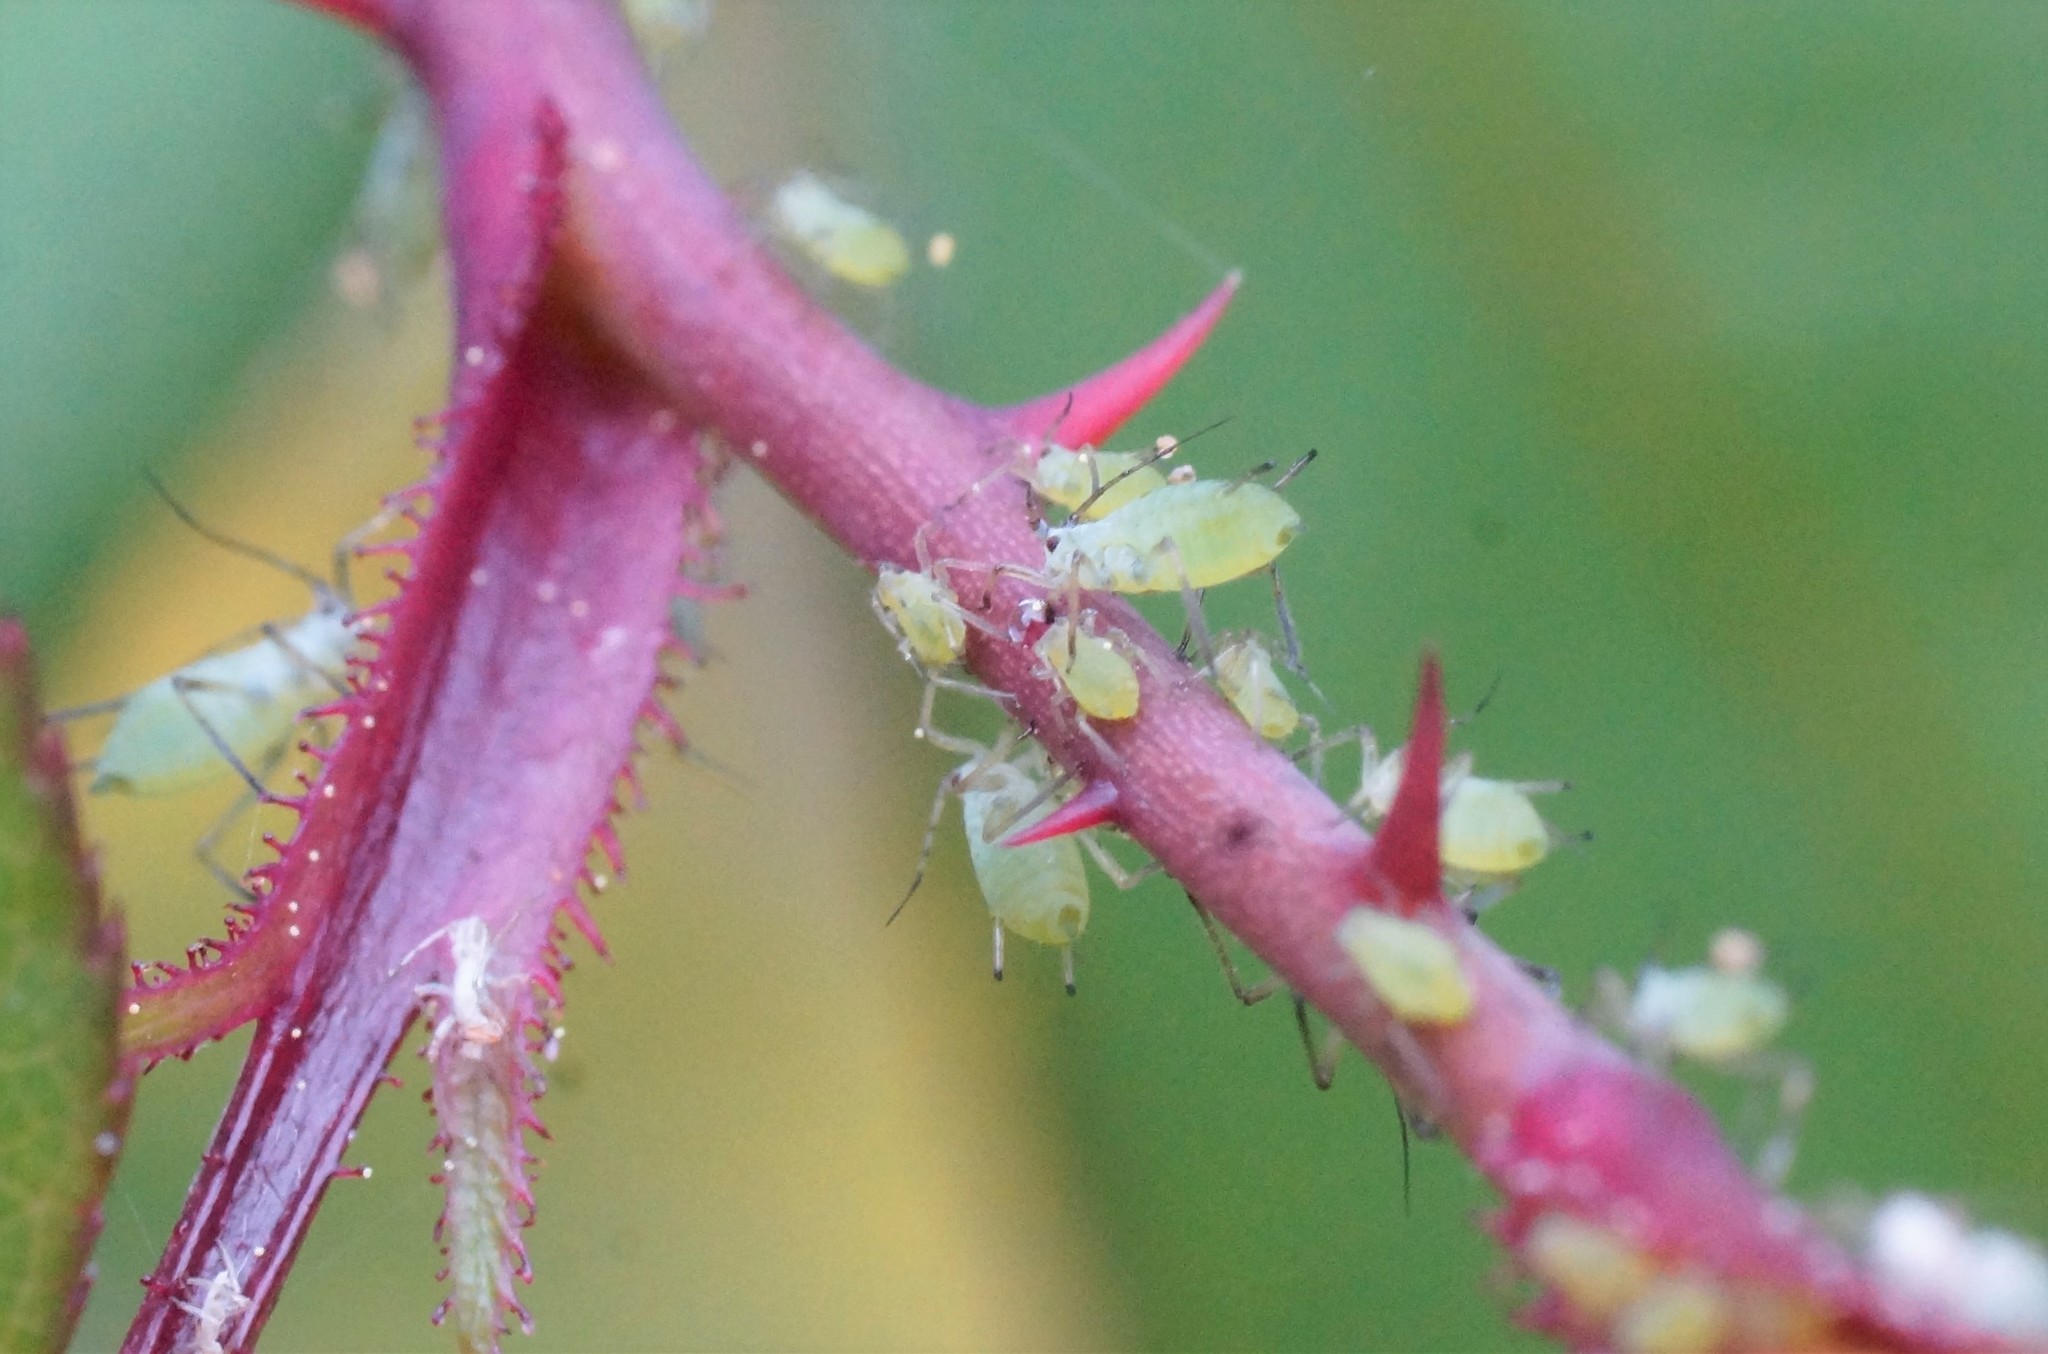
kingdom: Animalia
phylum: Arthropoda
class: Insecta
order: Hemiptera
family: Aphididae
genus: Macrosiphum
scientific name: Macrosiphum rosae
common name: Rose aphid
